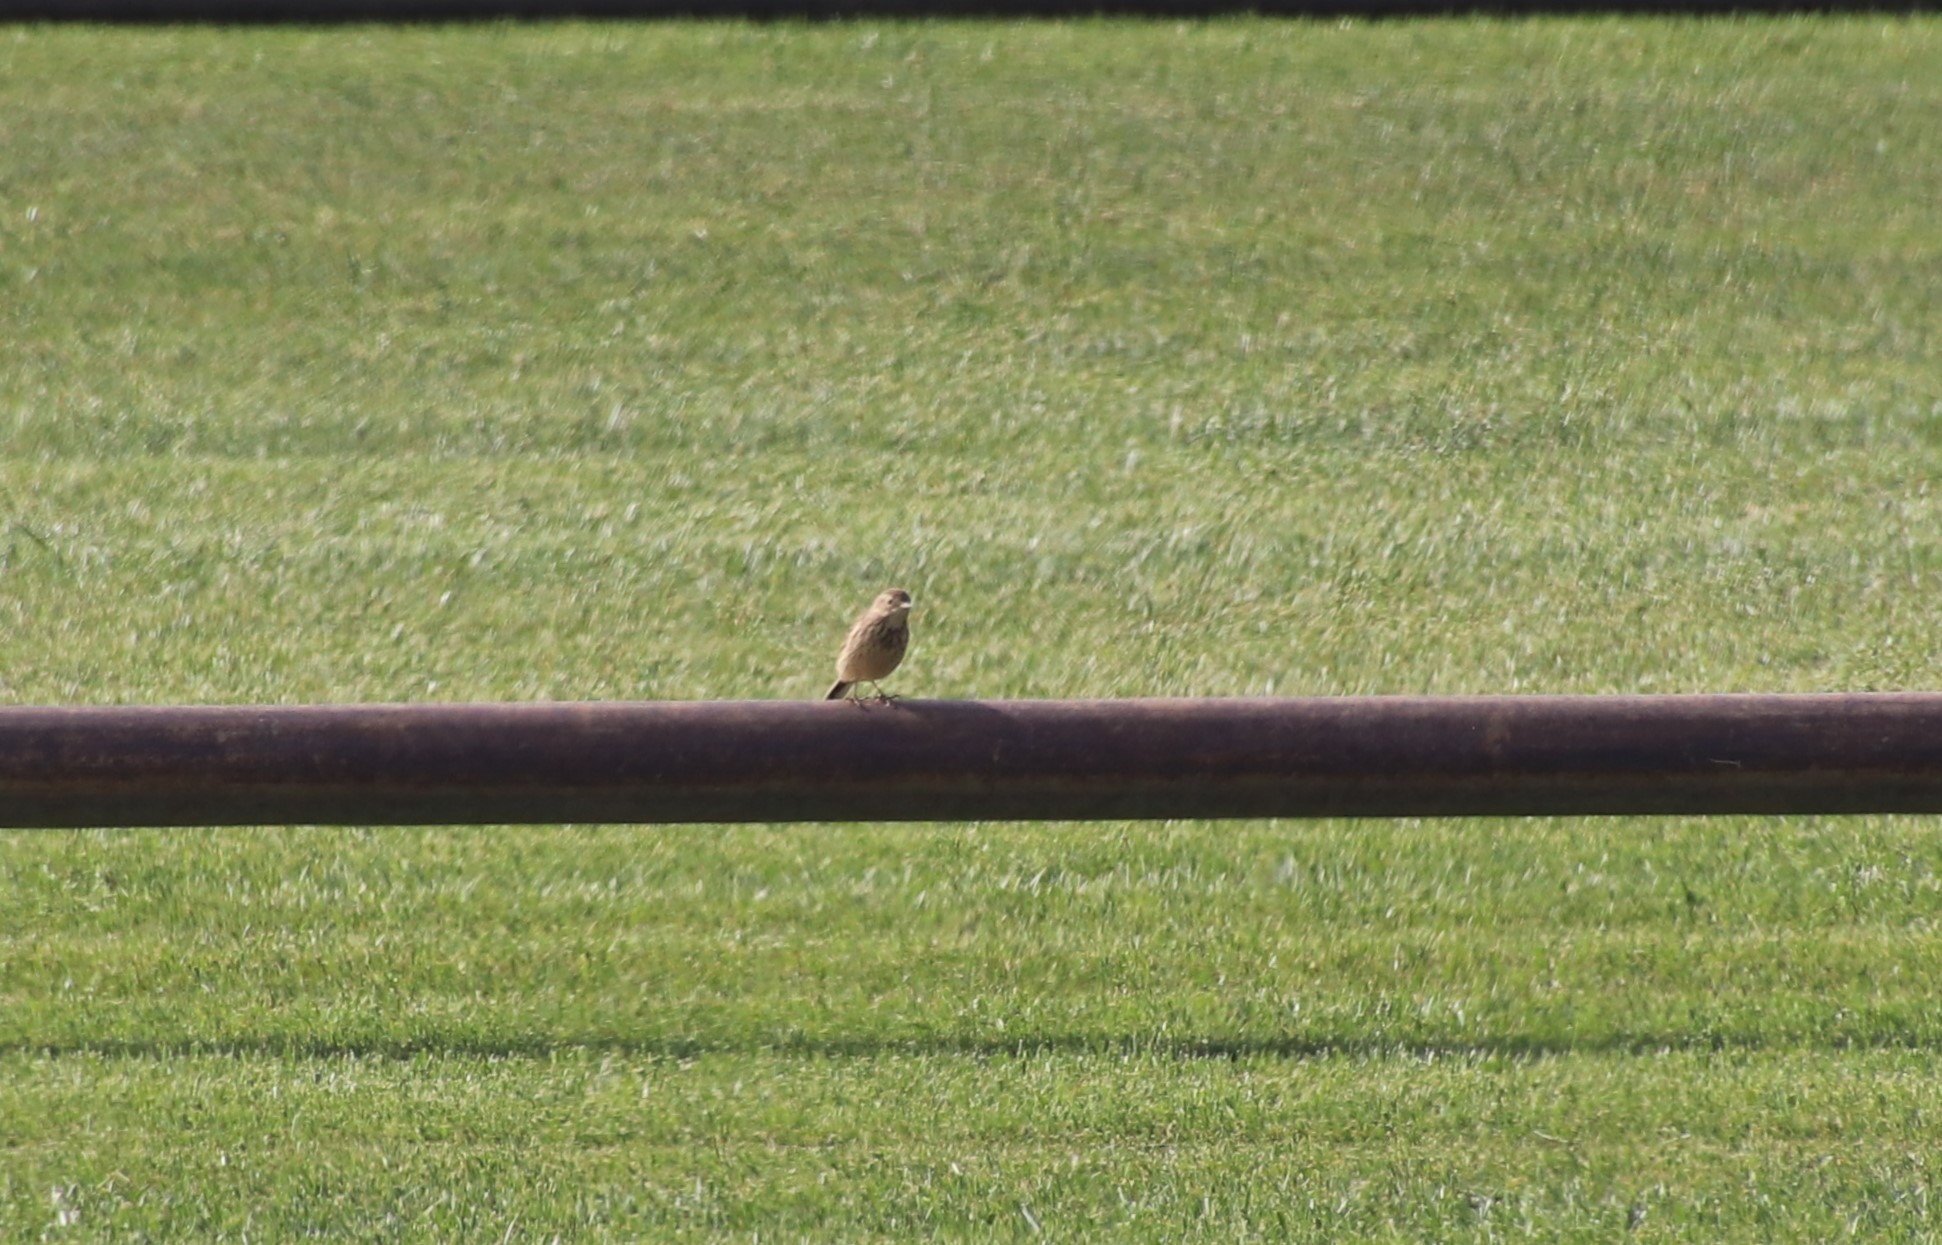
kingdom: Animalia
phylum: Chordata
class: Aves
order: Passeriformes
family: Motacillidae
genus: Anthus
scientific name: Anthus rubescens
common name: Buff-bellied pipit
